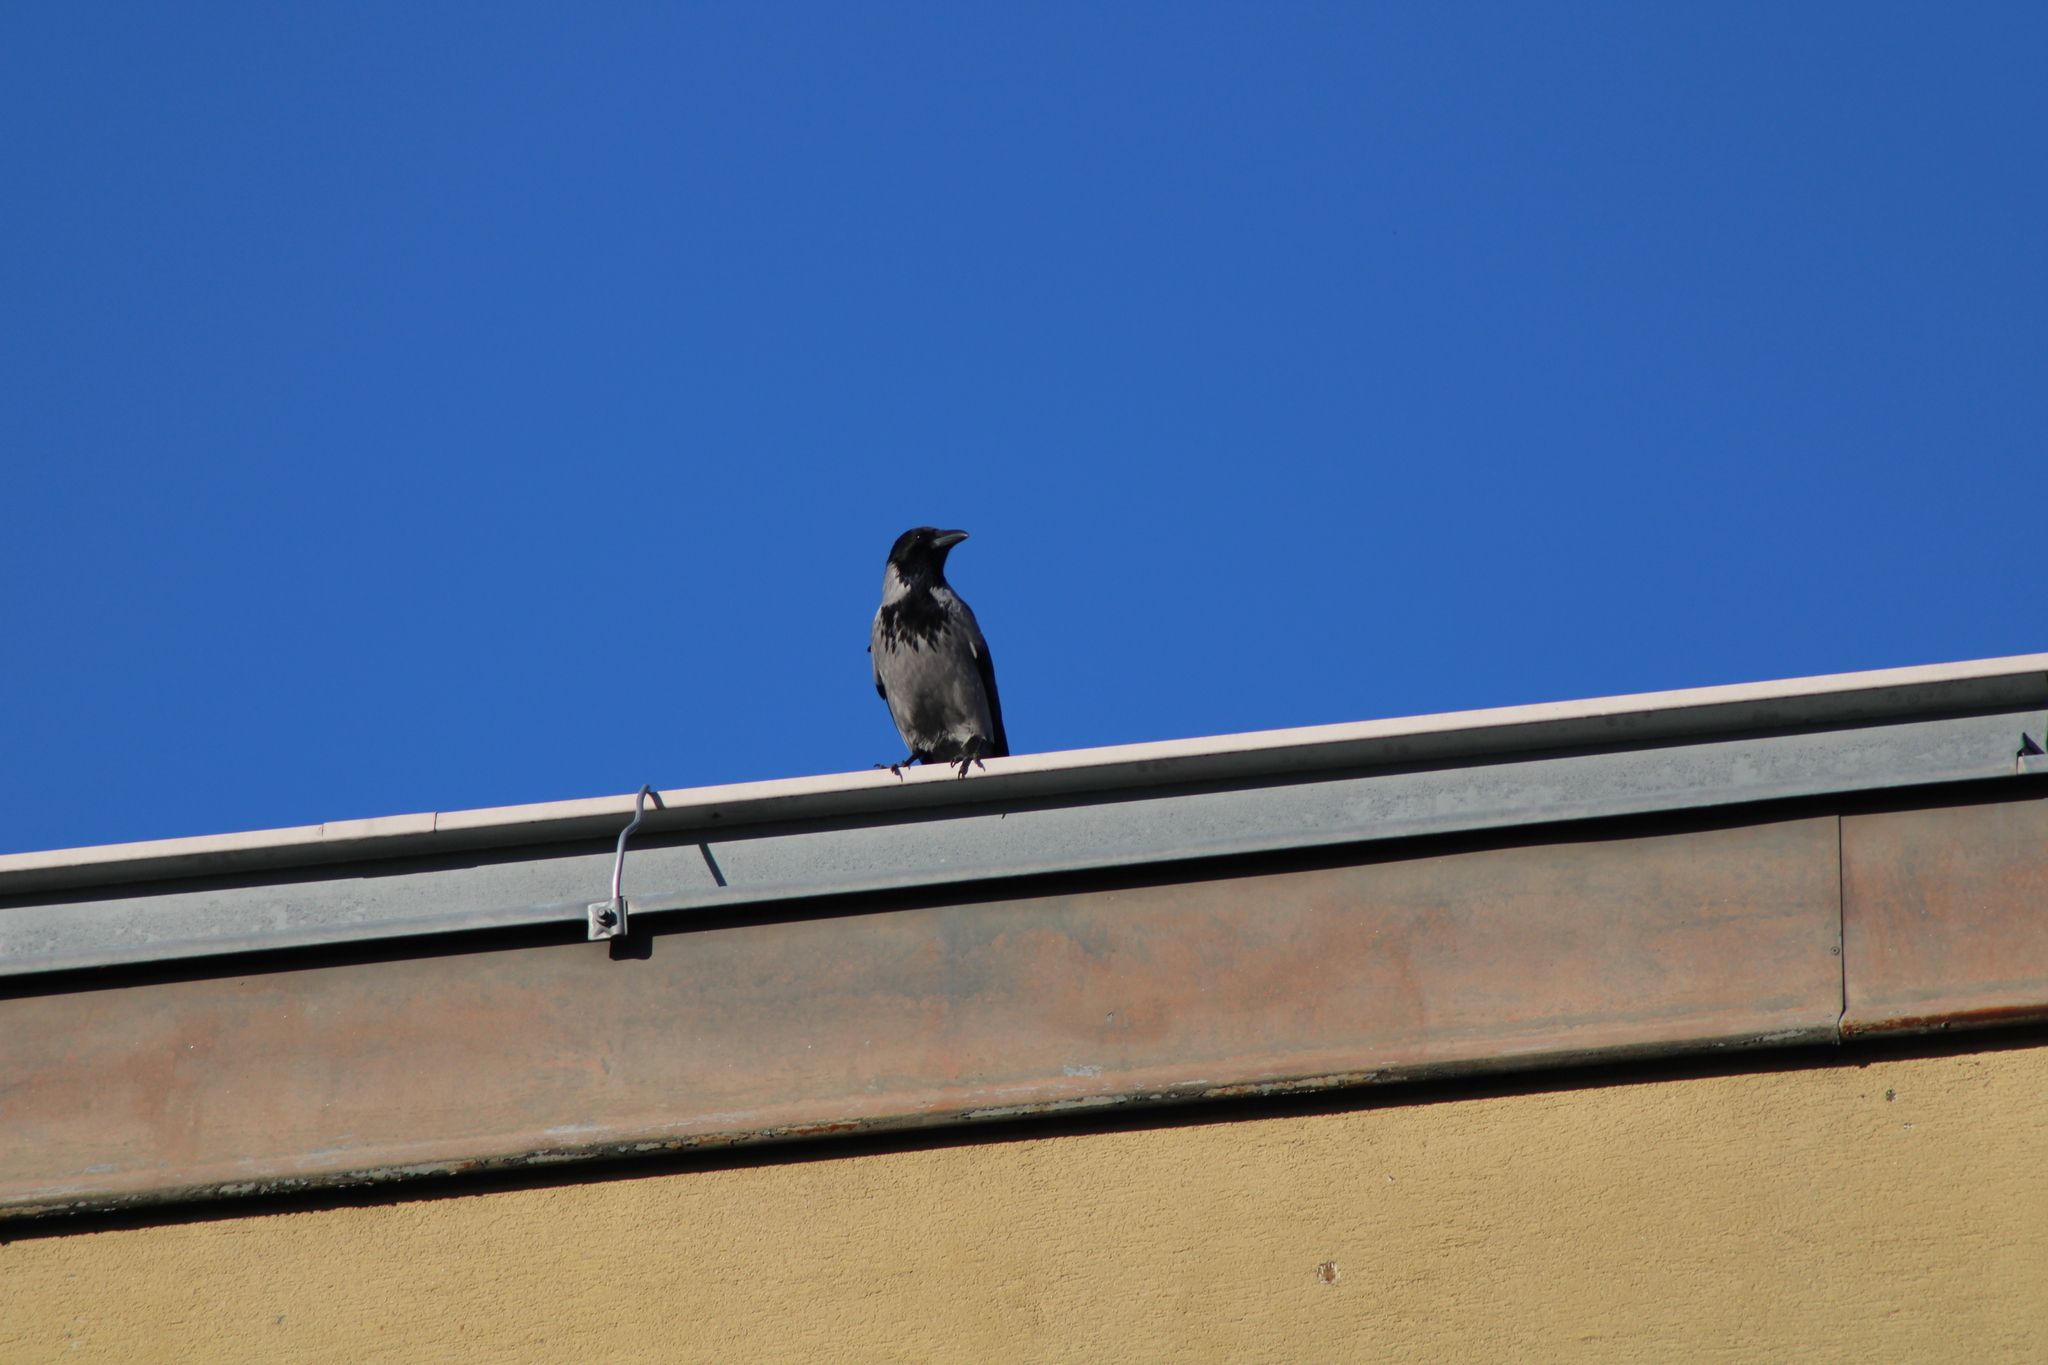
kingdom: Animalia
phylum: Chordata
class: Aves
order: Passeriformes
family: Corvidae
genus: Corvus
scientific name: Corvus cornix
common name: Hooded crow
